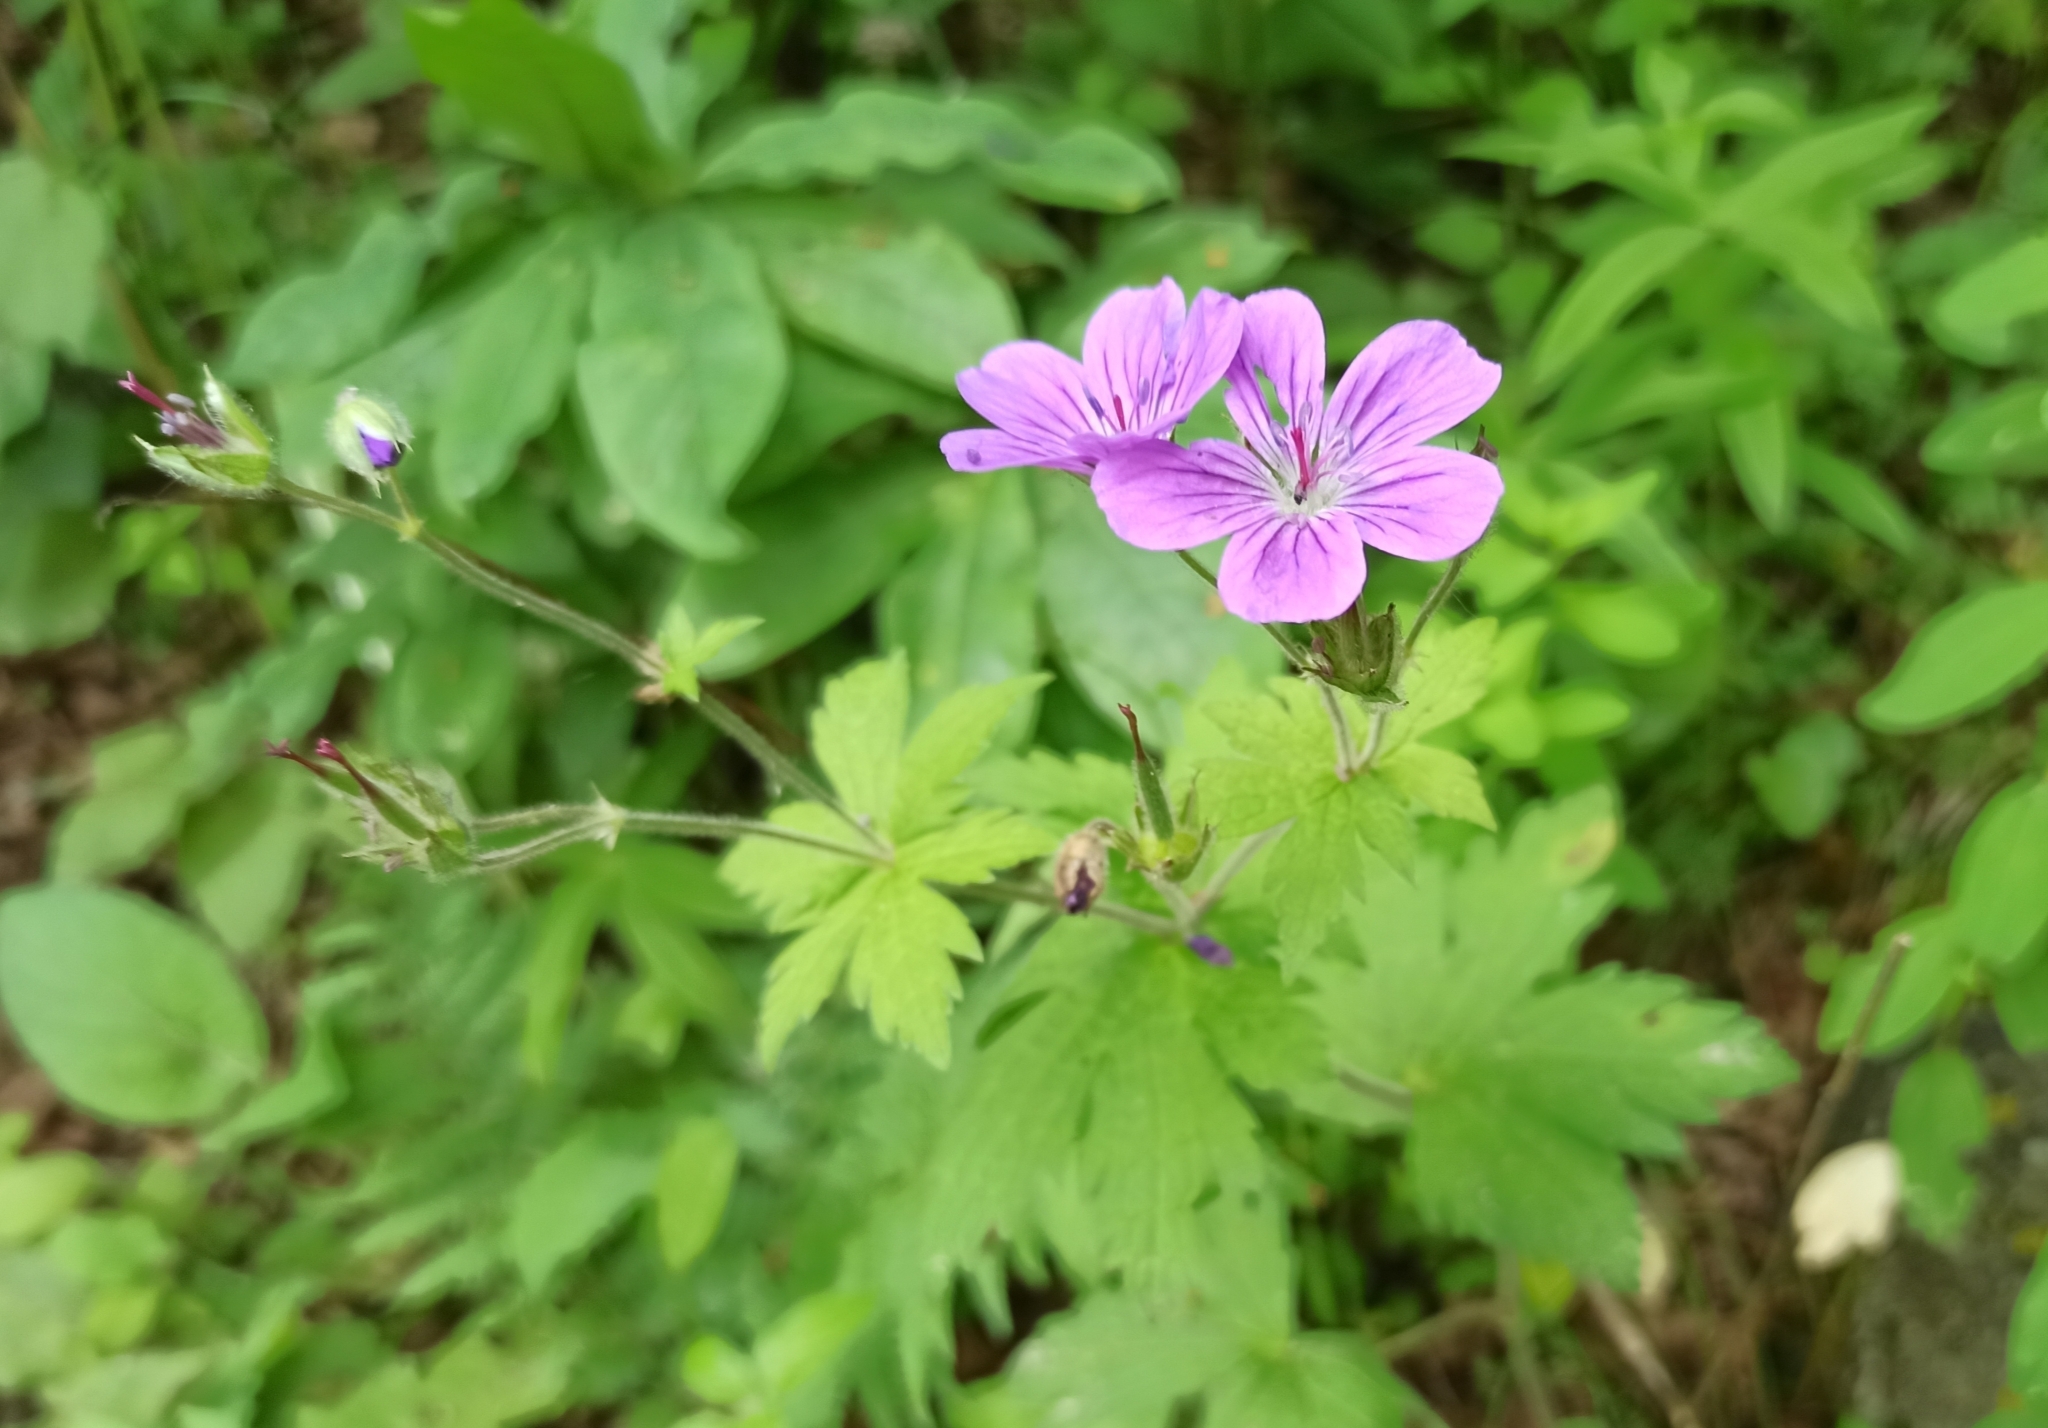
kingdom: Plantae
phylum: Tracheophyta
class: Magnoliopsida
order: Geraniales
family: Geraniaceae
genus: Geranium
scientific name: Geranium sylvaticum
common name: Wood crane's-bill
